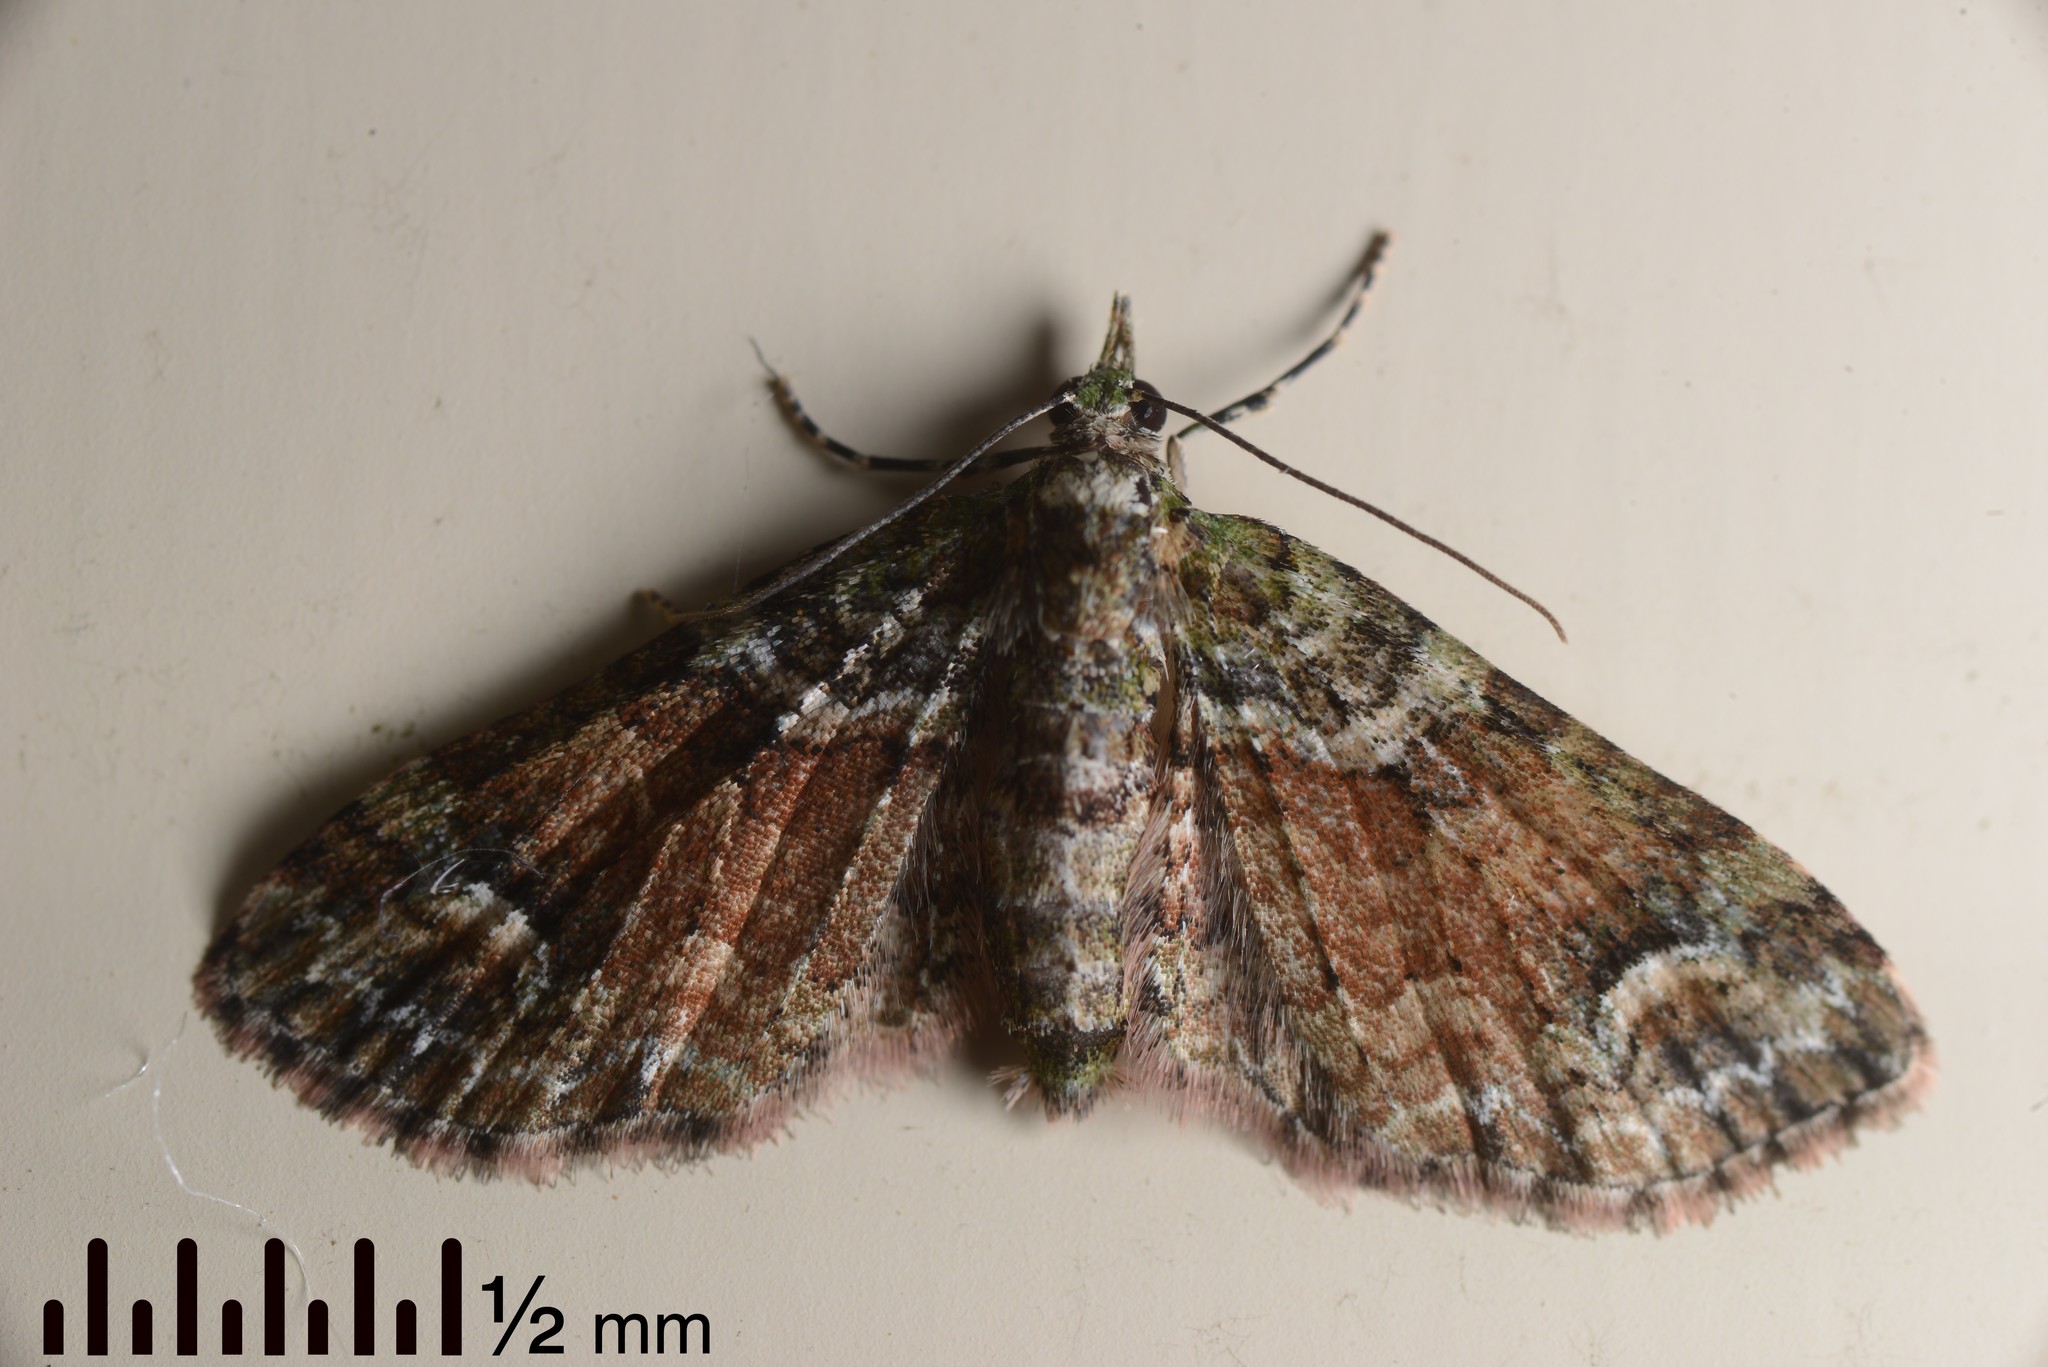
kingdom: Animalia
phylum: Arthropoda
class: Insecta
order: Lepidoptera
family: Geometridae
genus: Idaea
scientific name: Idaea mutanda
